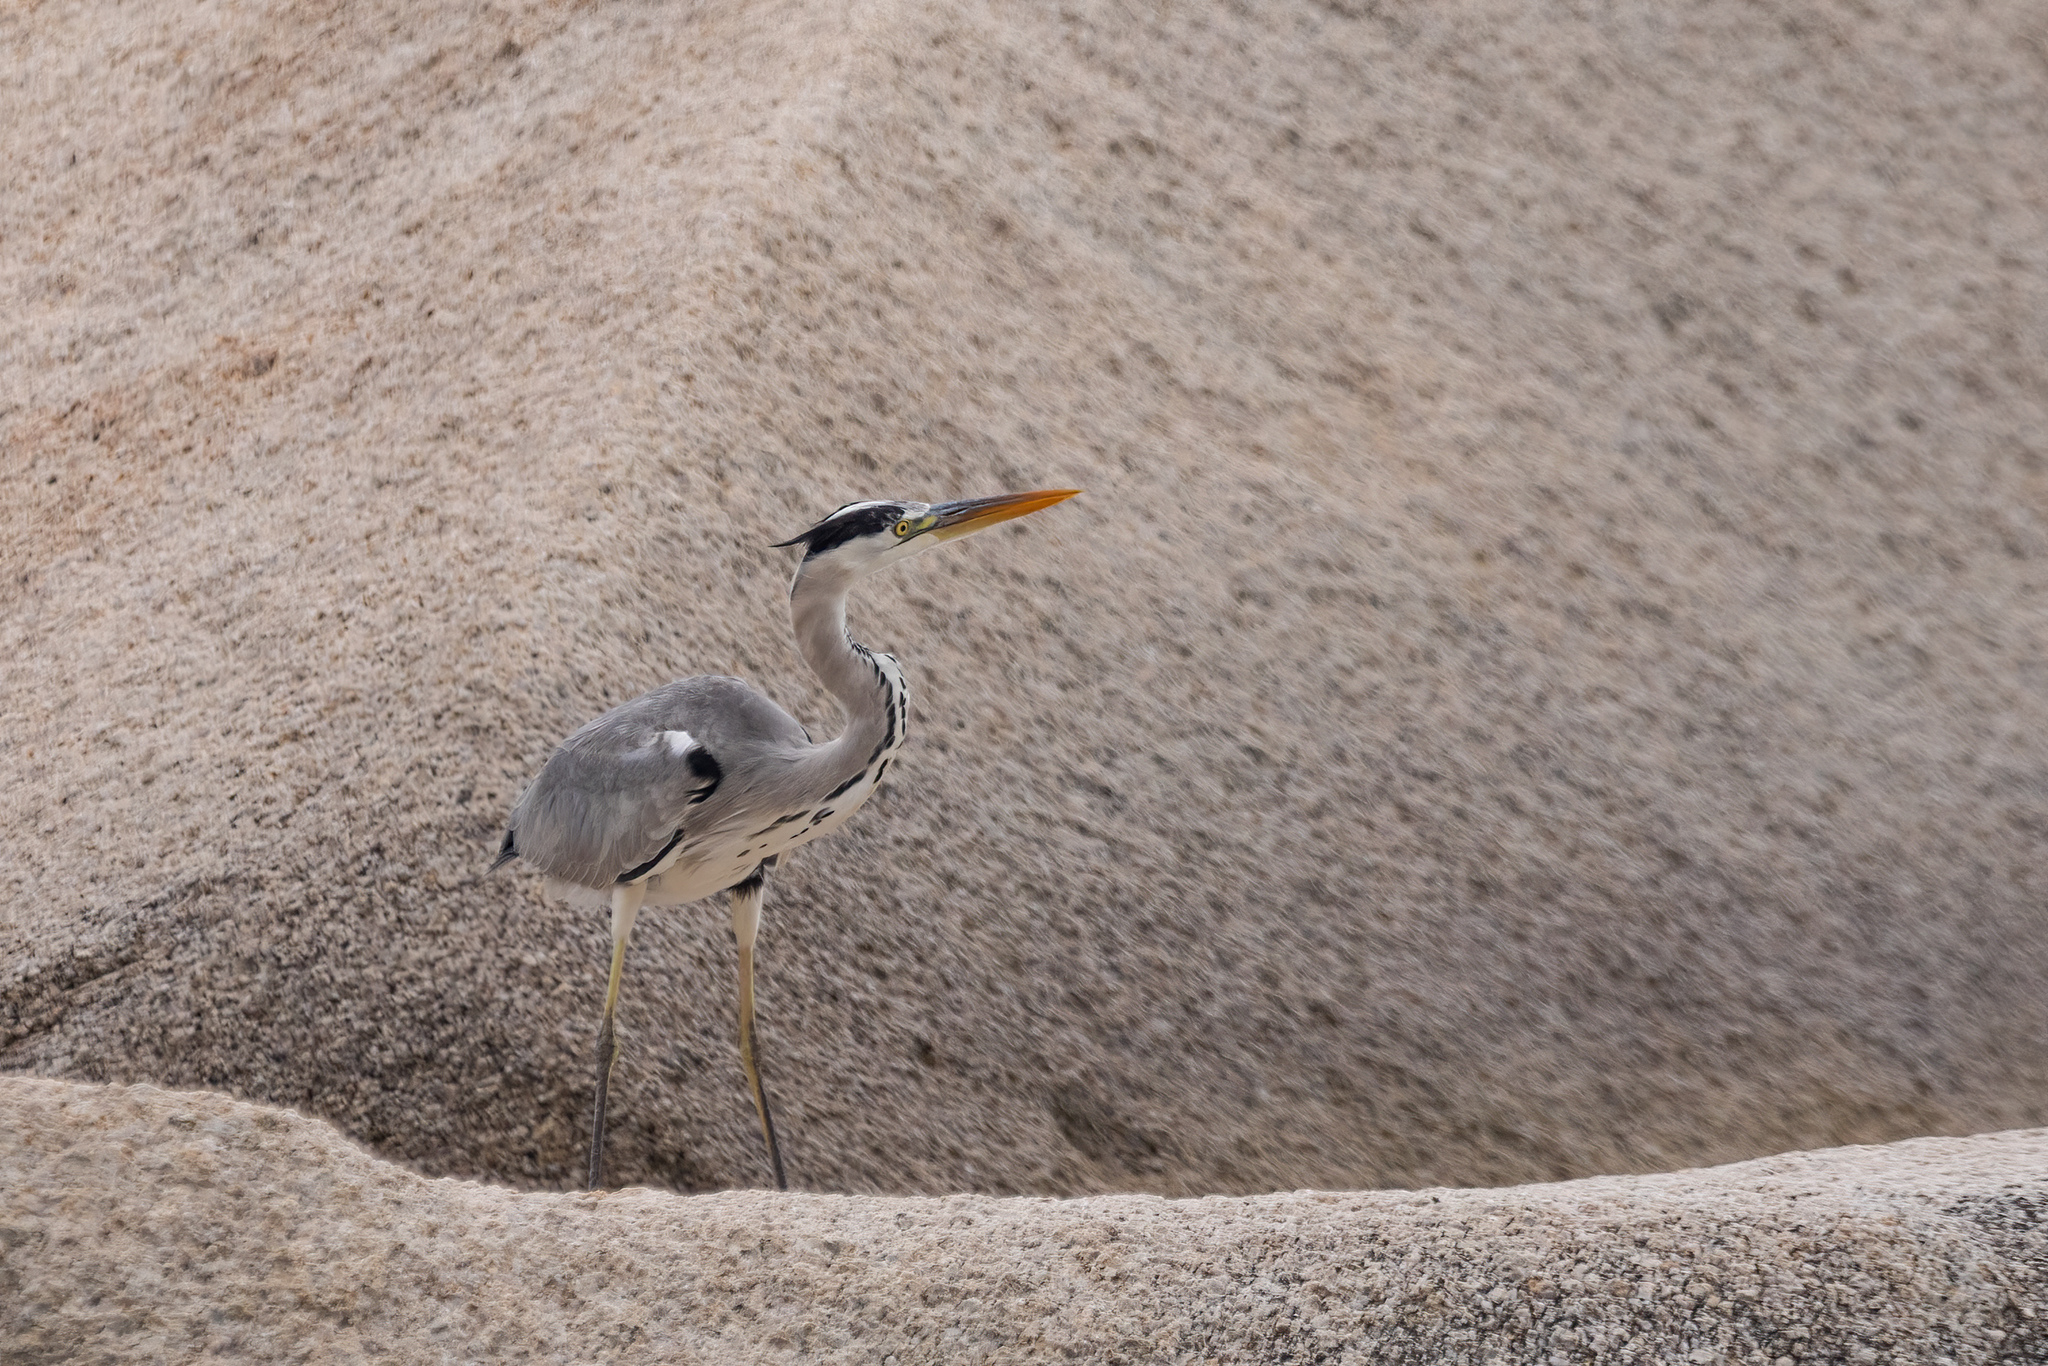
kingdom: Animalia
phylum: Chordata
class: Aves
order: Pelecaniformes
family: Ardeidae
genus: Ardea
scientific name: Ardea cinerea
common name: Grey heron
